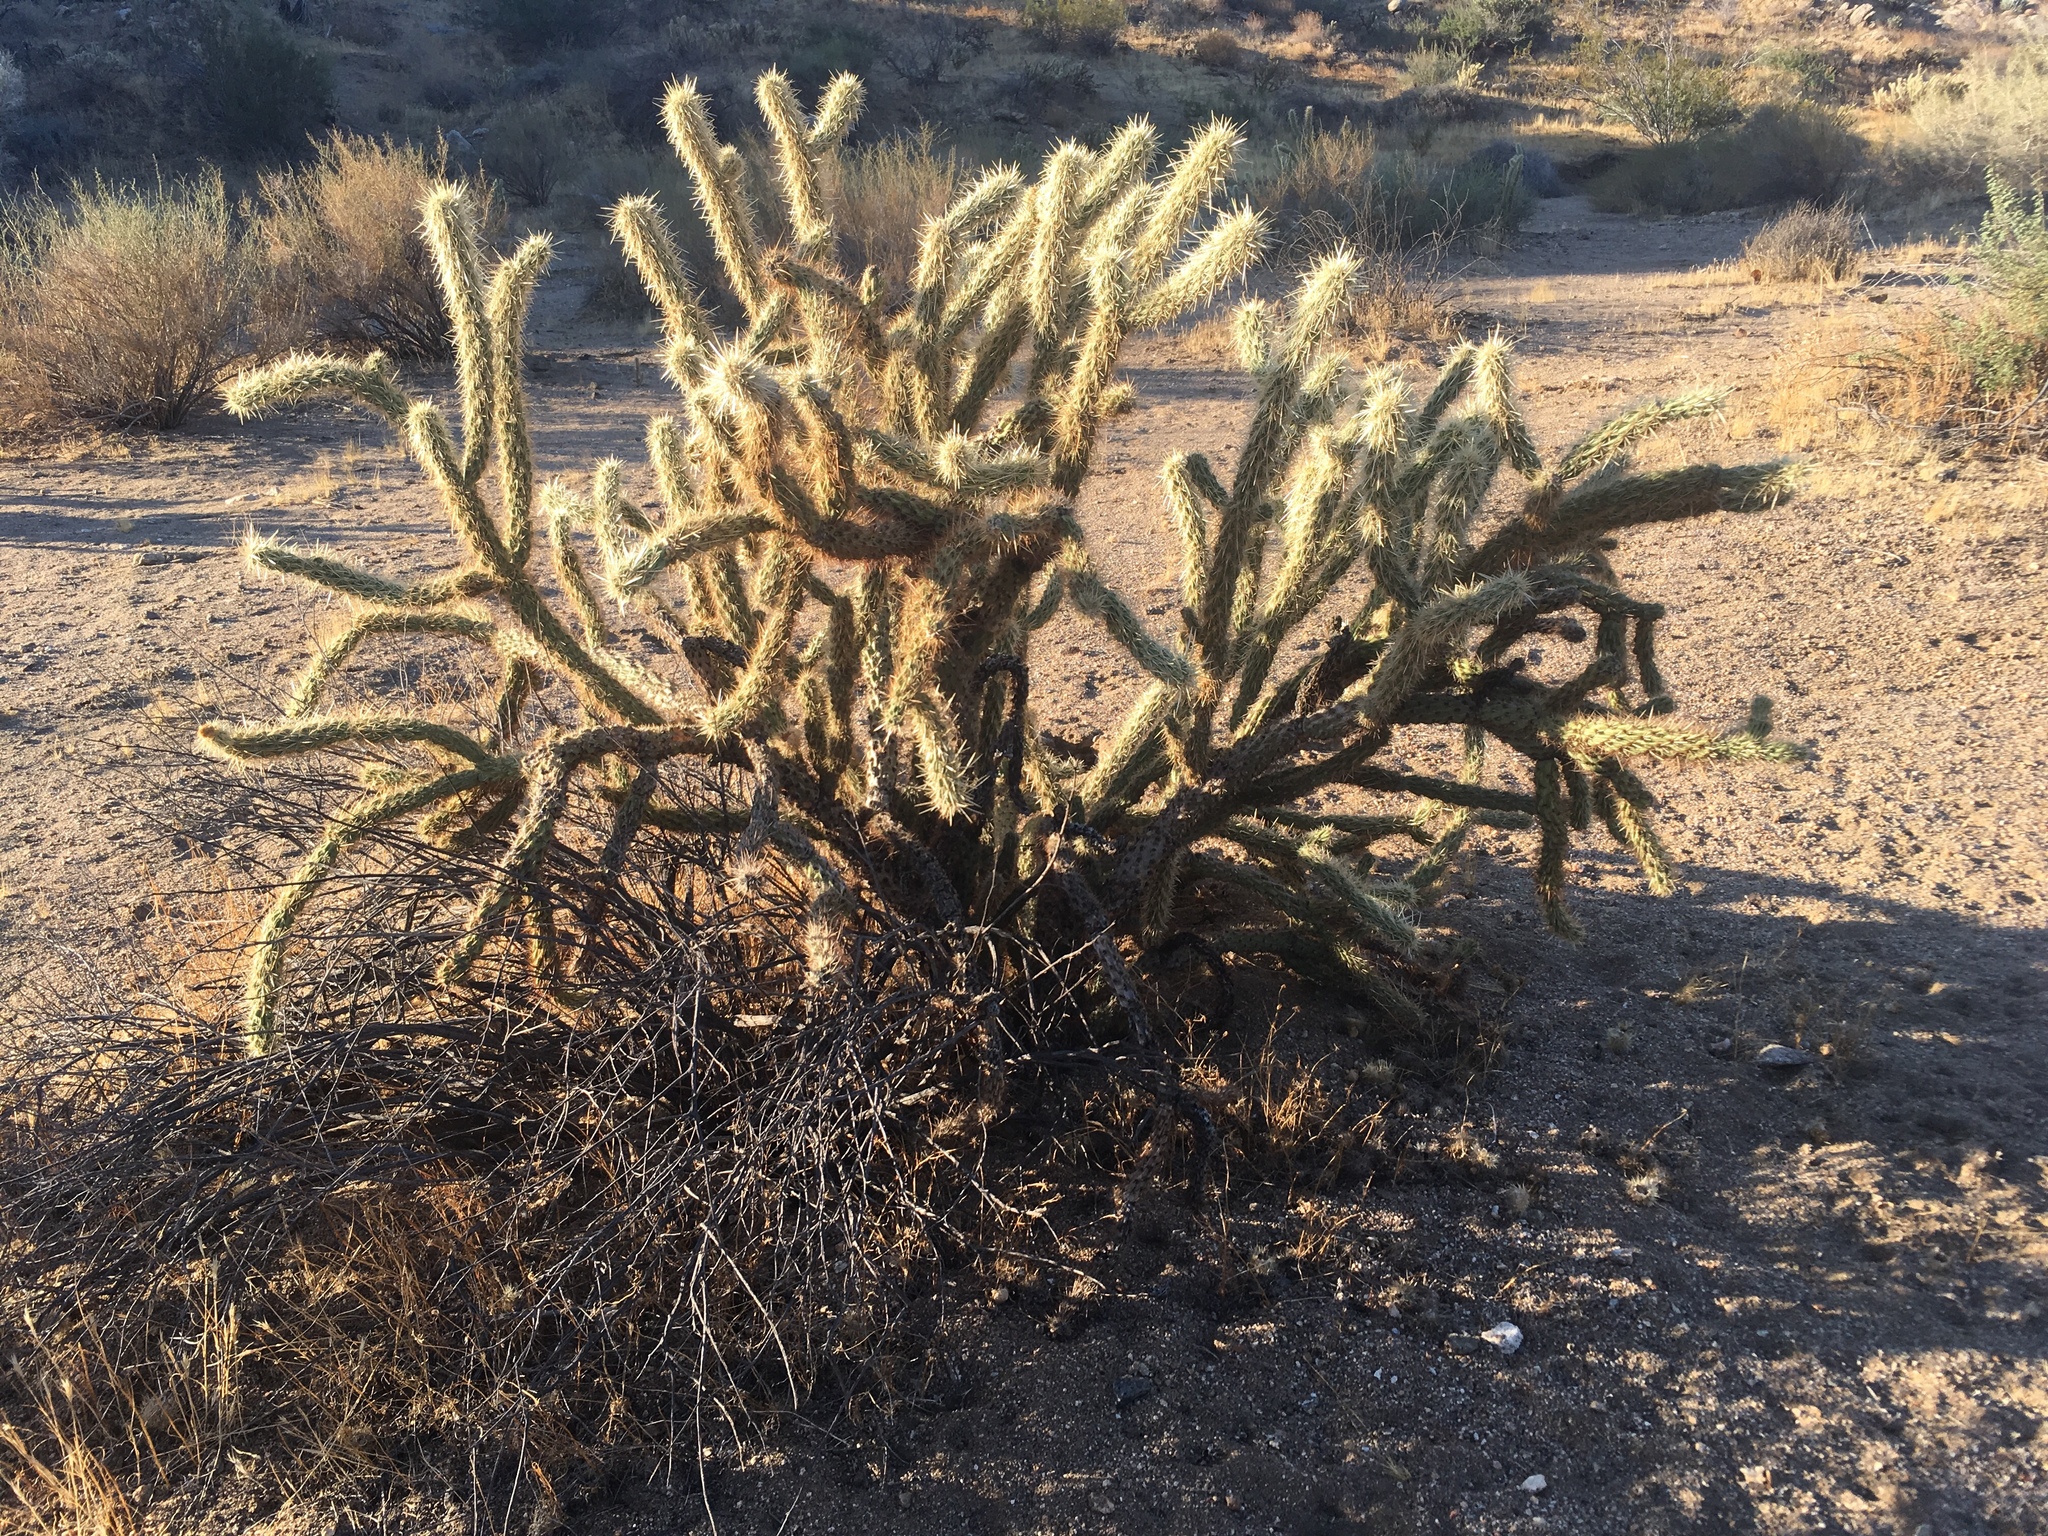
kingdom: Plantae
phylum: Tracheophyta
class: Magnoliopsida
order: Caryophyllales
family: Cactaceae
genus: Cylindropuntia
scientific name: Cylindropuntia ganderi
